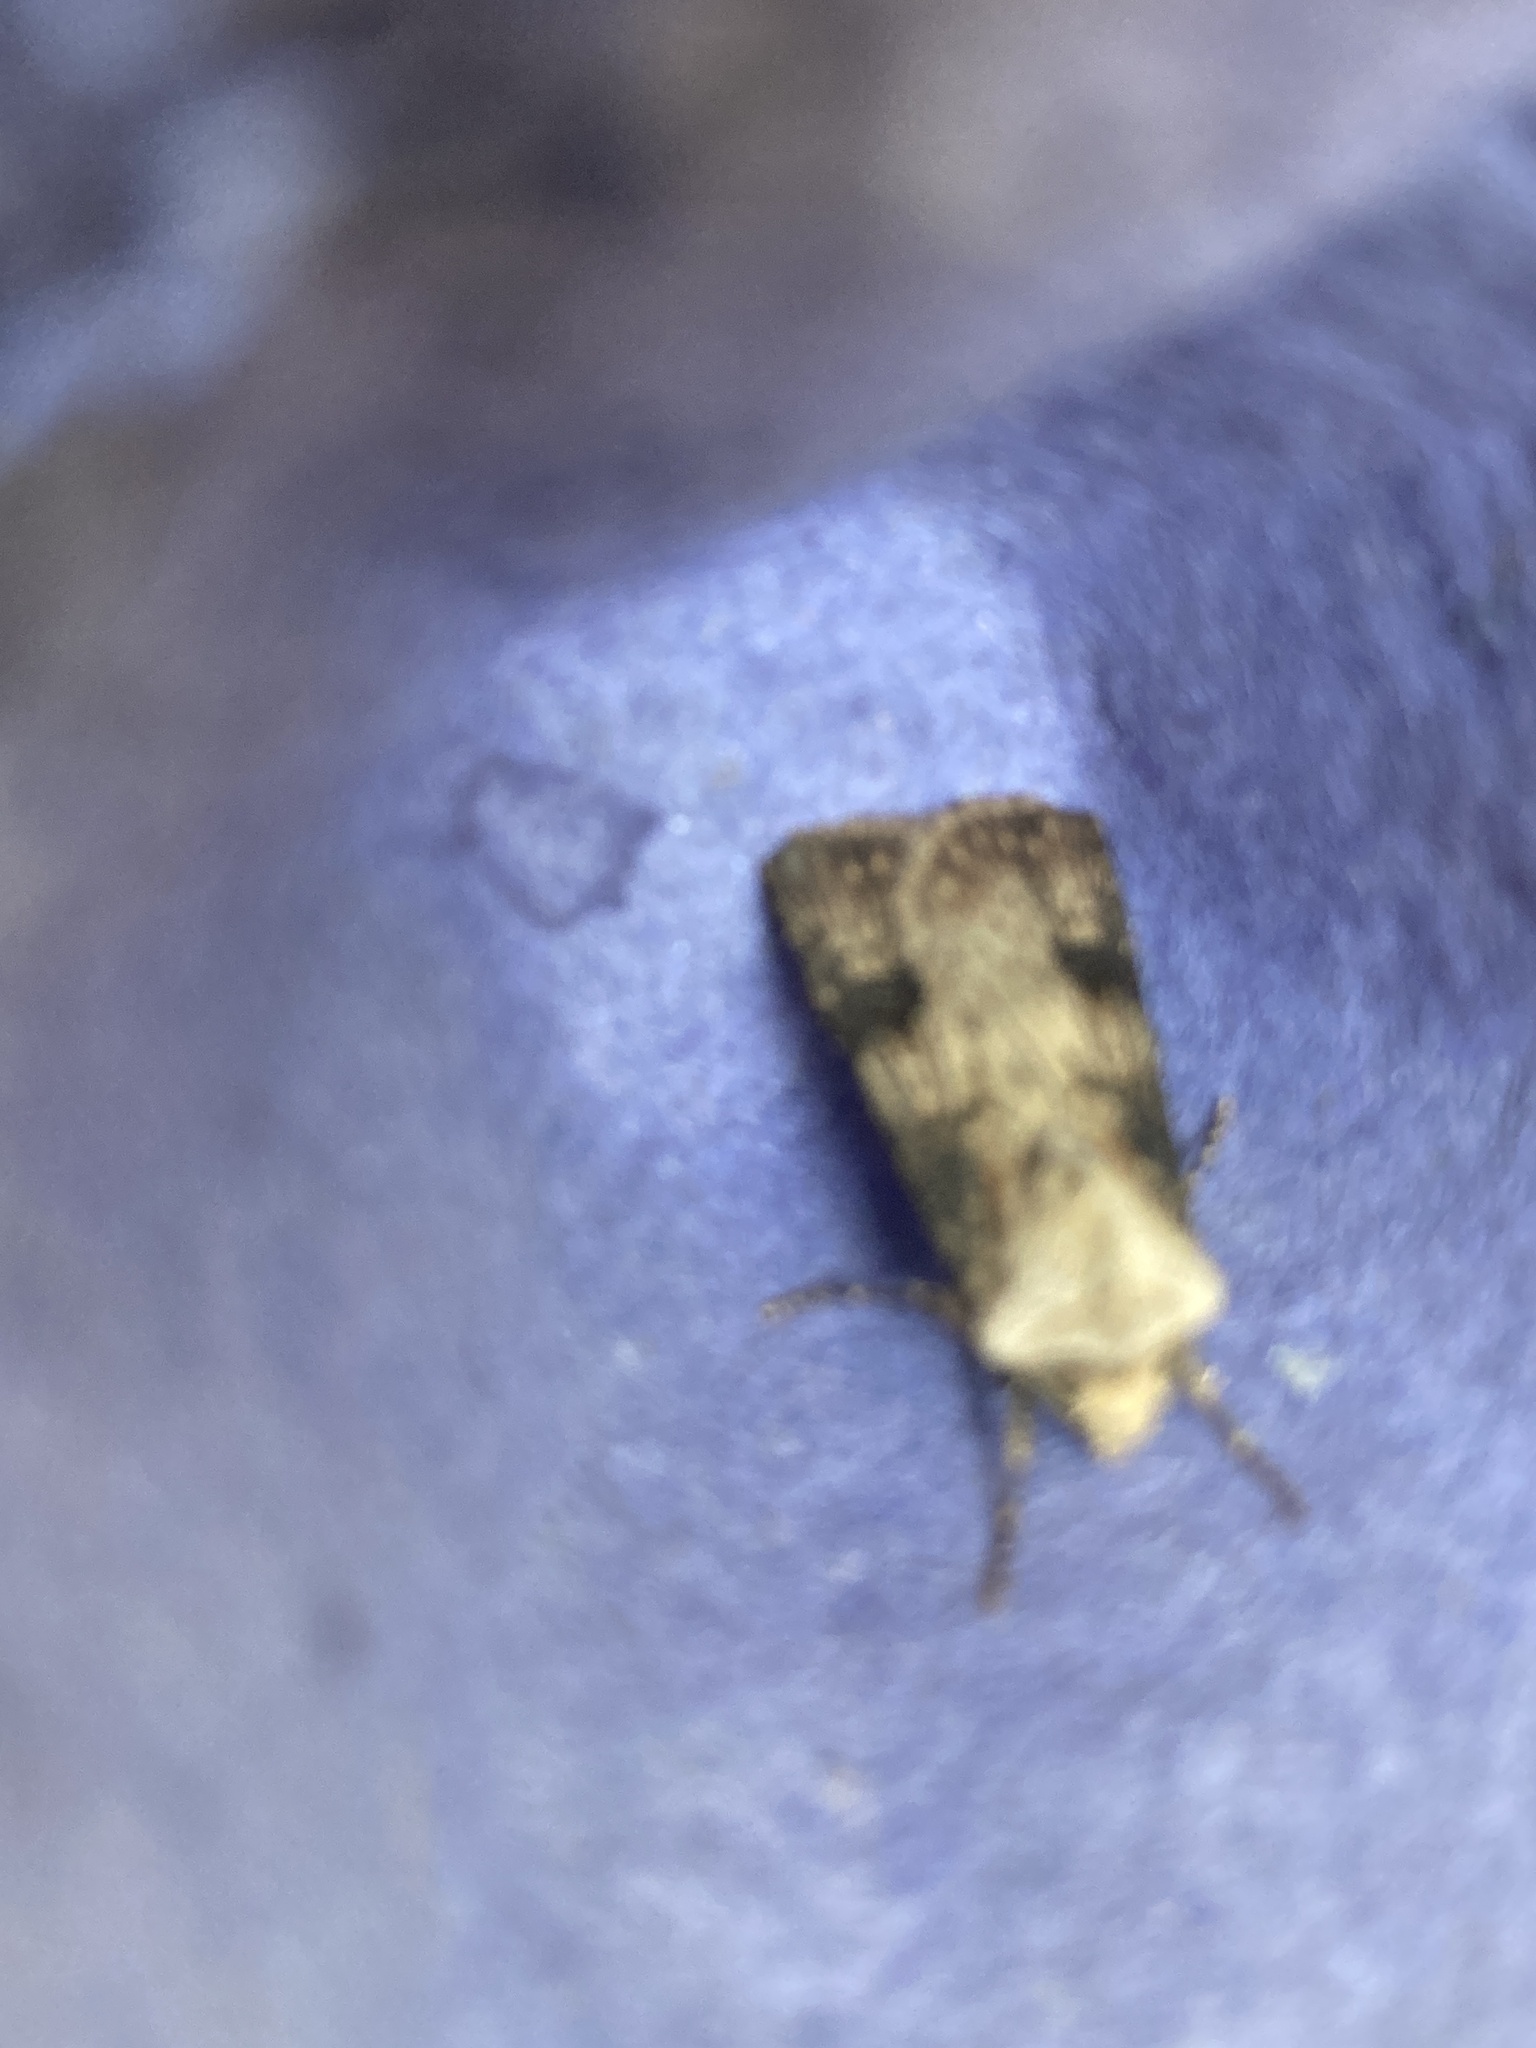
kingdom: Animalia
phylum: Arthropoda
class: Insecta
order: Lepidoptera
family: Noctuidae
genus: Agrotis
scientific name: Agrotis puta
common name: Shuttle-shaped dart
